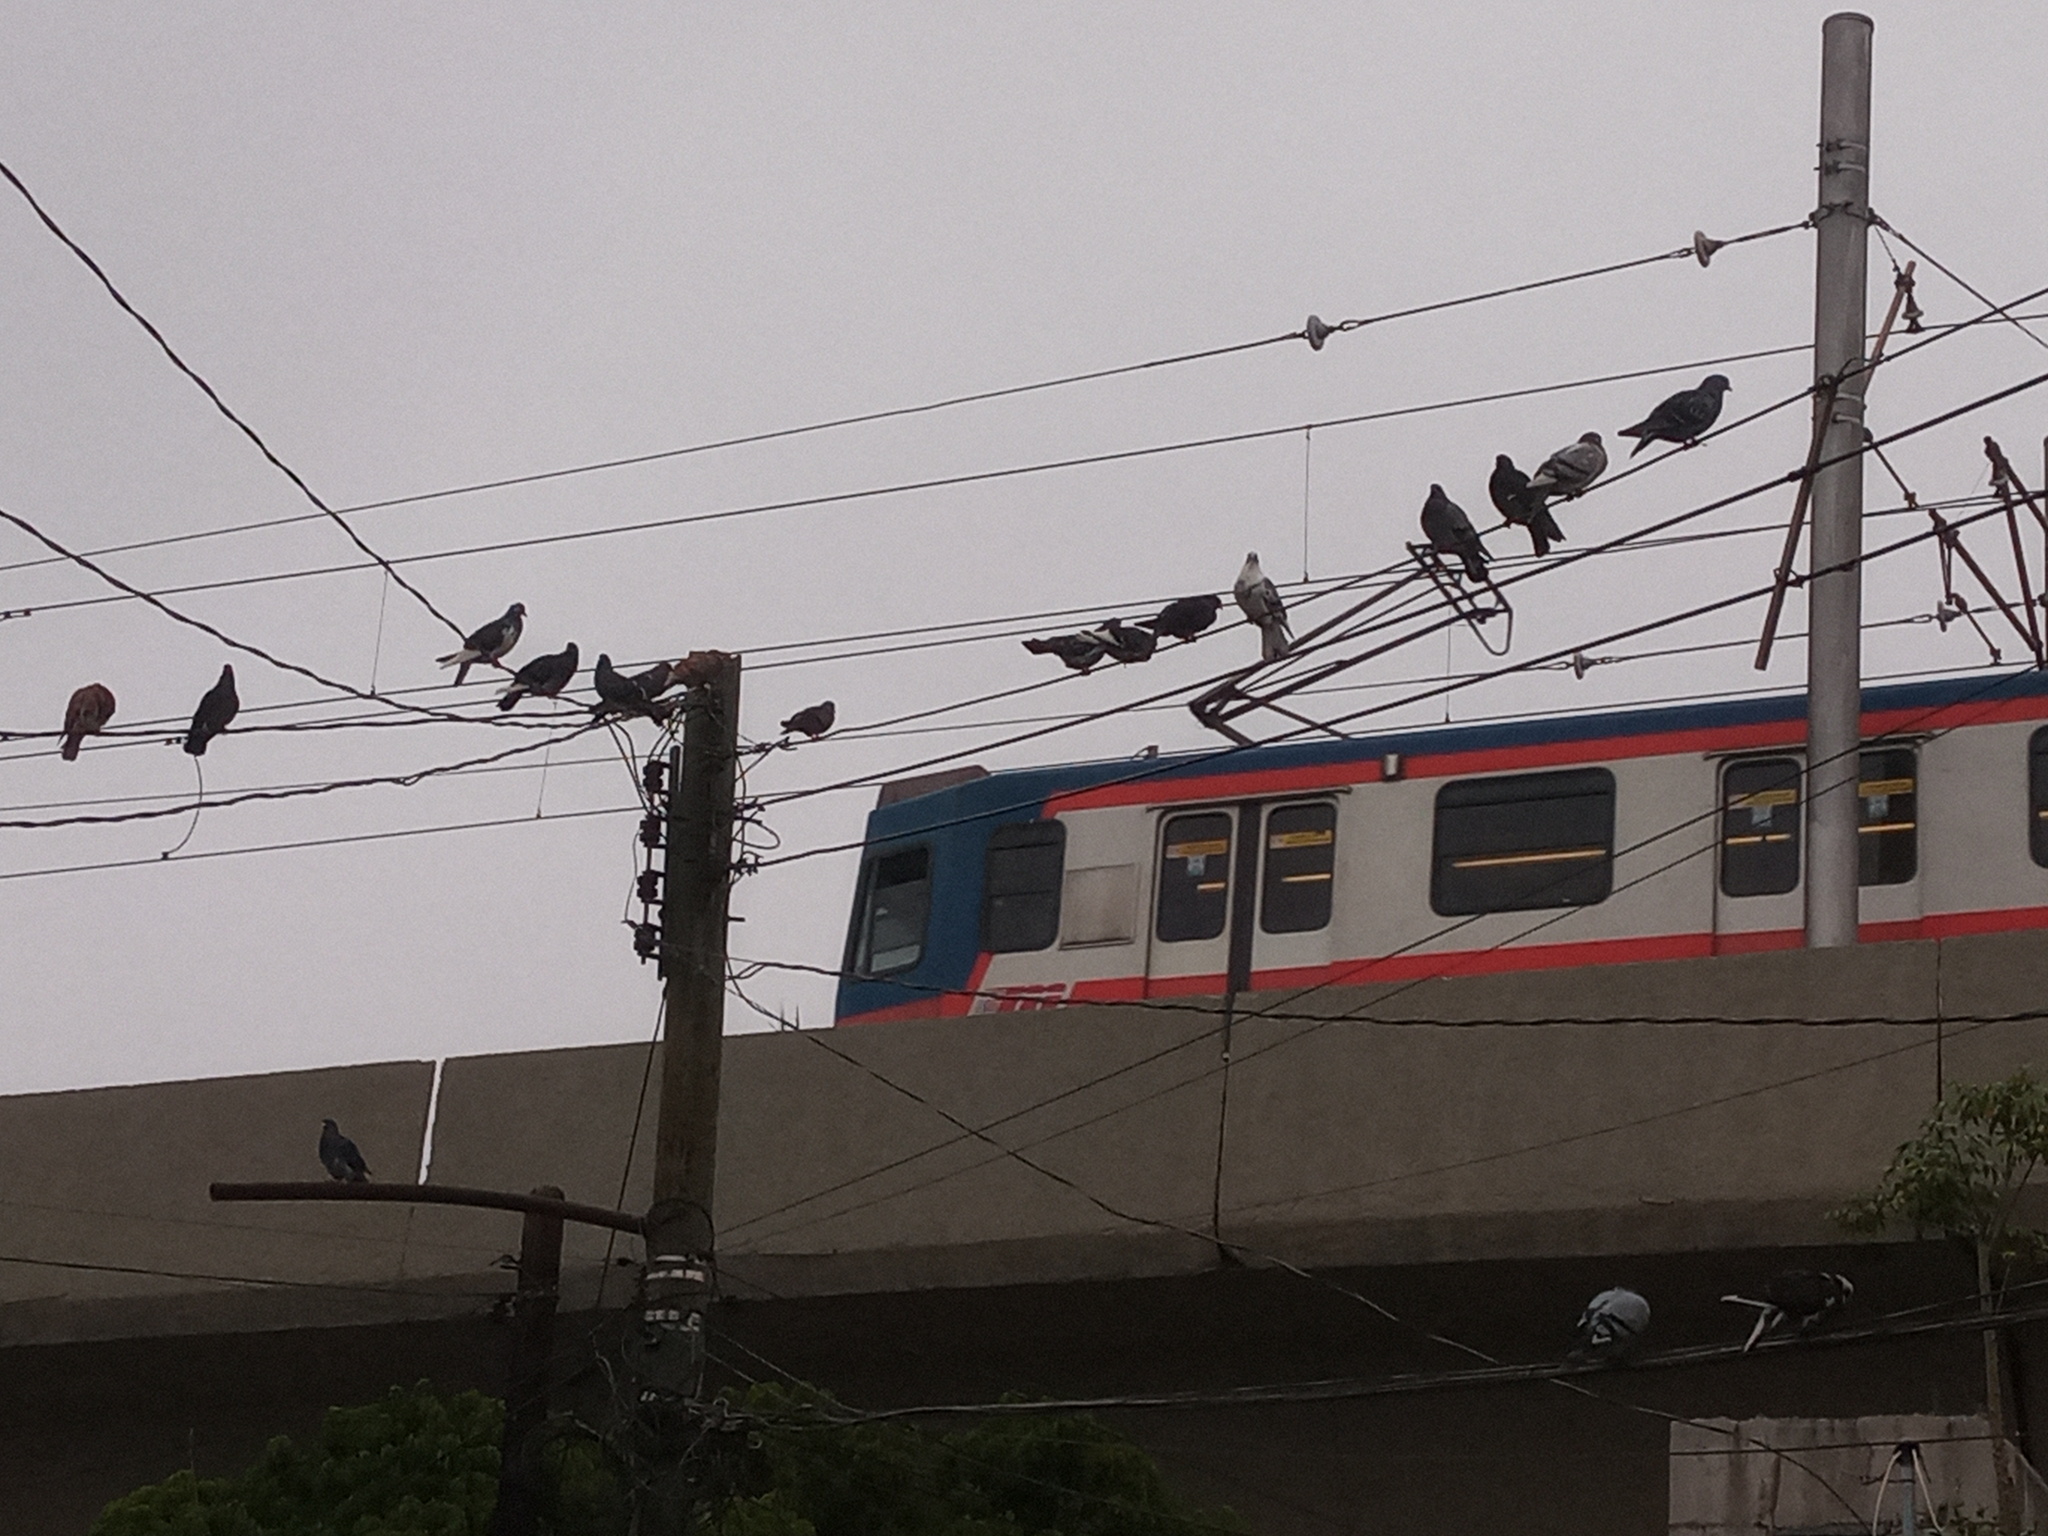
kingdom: Animalia
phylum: Chordata
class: Aves
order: Columbiformes
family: Columbidae
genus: Columba
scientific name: Columba livia
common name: Rock pigeon
